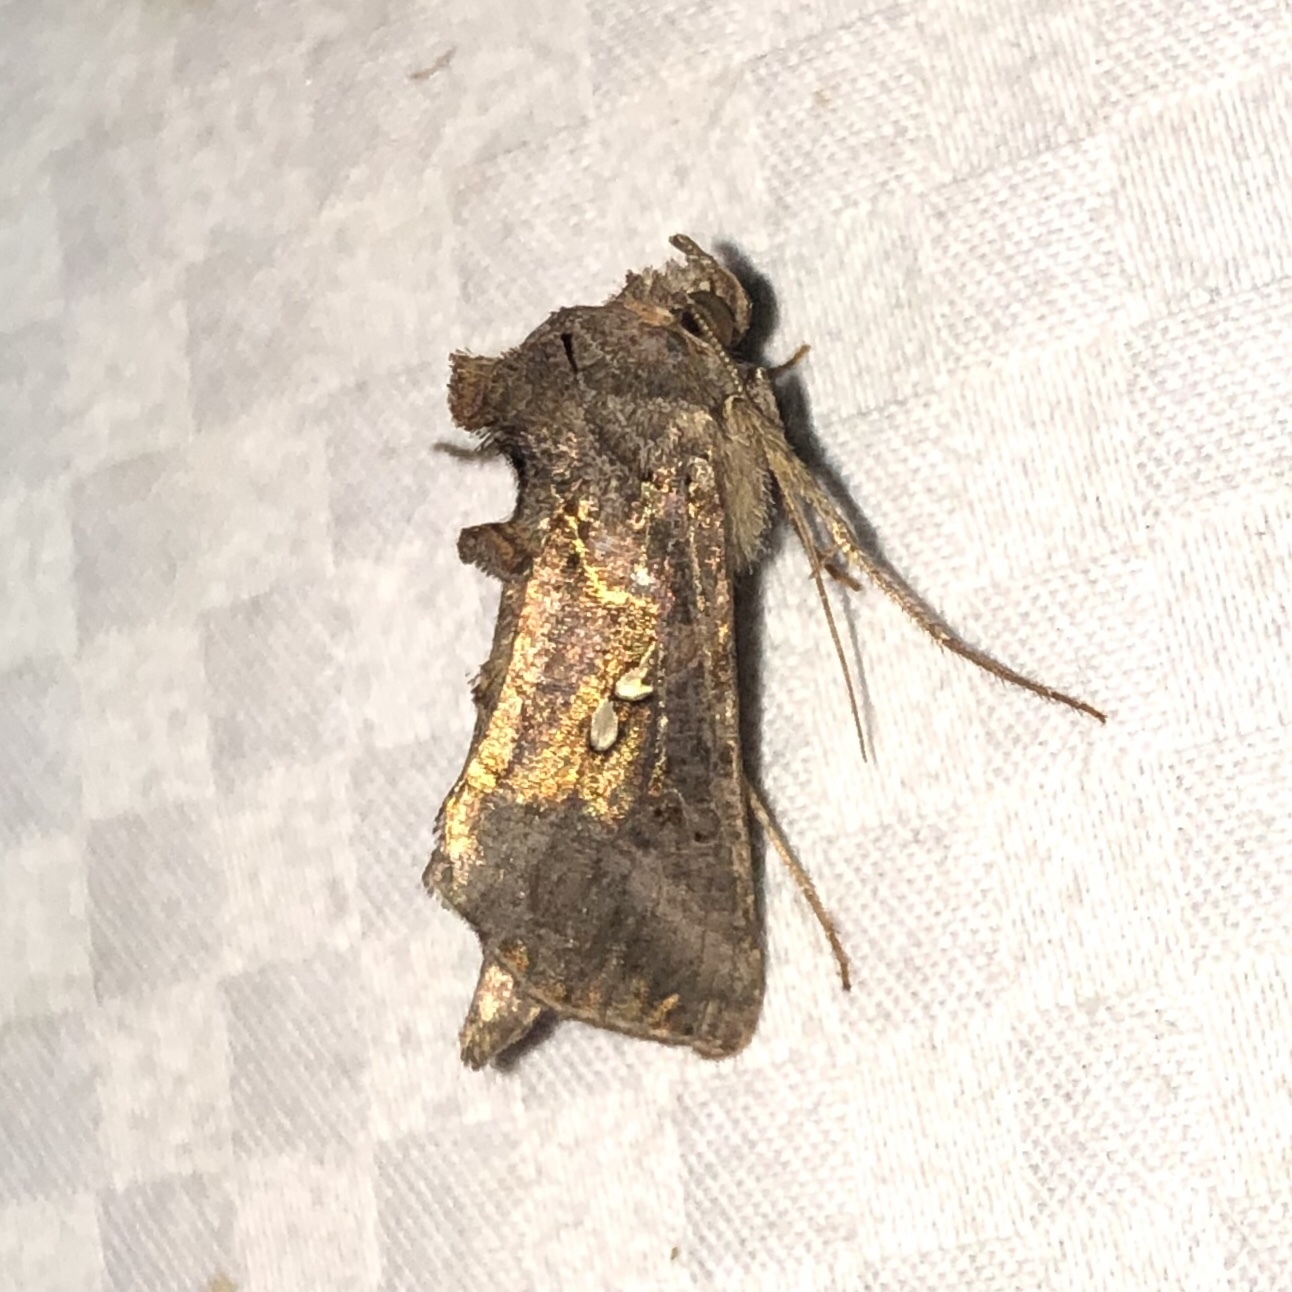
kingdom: Animalia
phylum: Arthropoda
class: Insecta
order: Lepidoptera
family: Noctuidae
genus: Autographa
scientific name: Autographa precationis
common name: Common looper moth
